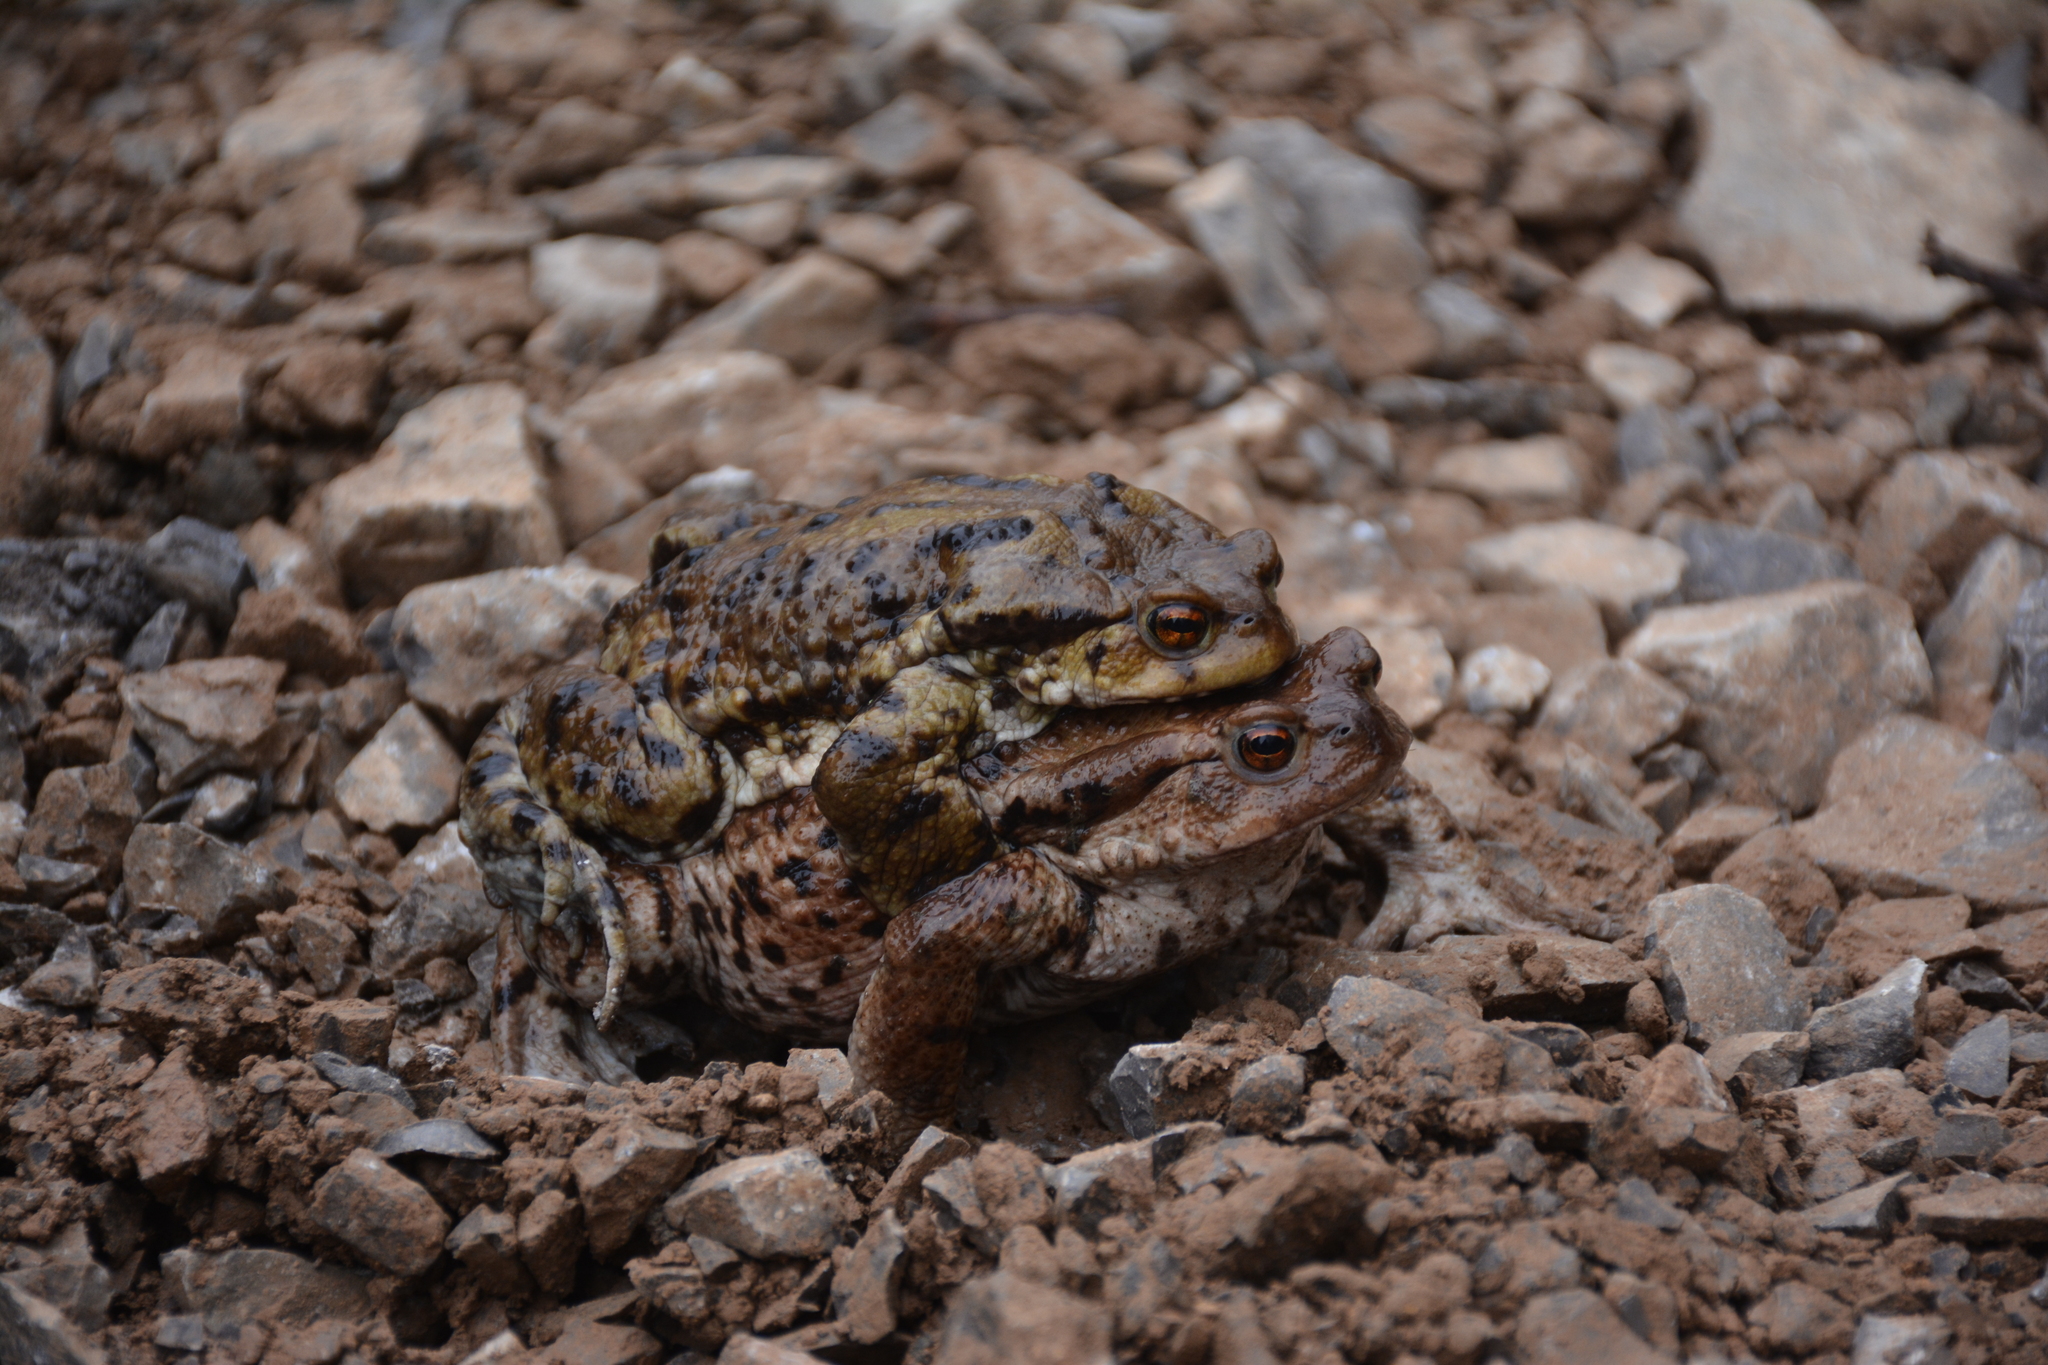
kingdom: Animalia
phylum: Chordata
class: Amphibia
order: Anura
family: Bufonidae
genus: Bufo
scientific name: Bufo eichwaldi
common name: Eichwald's toad
